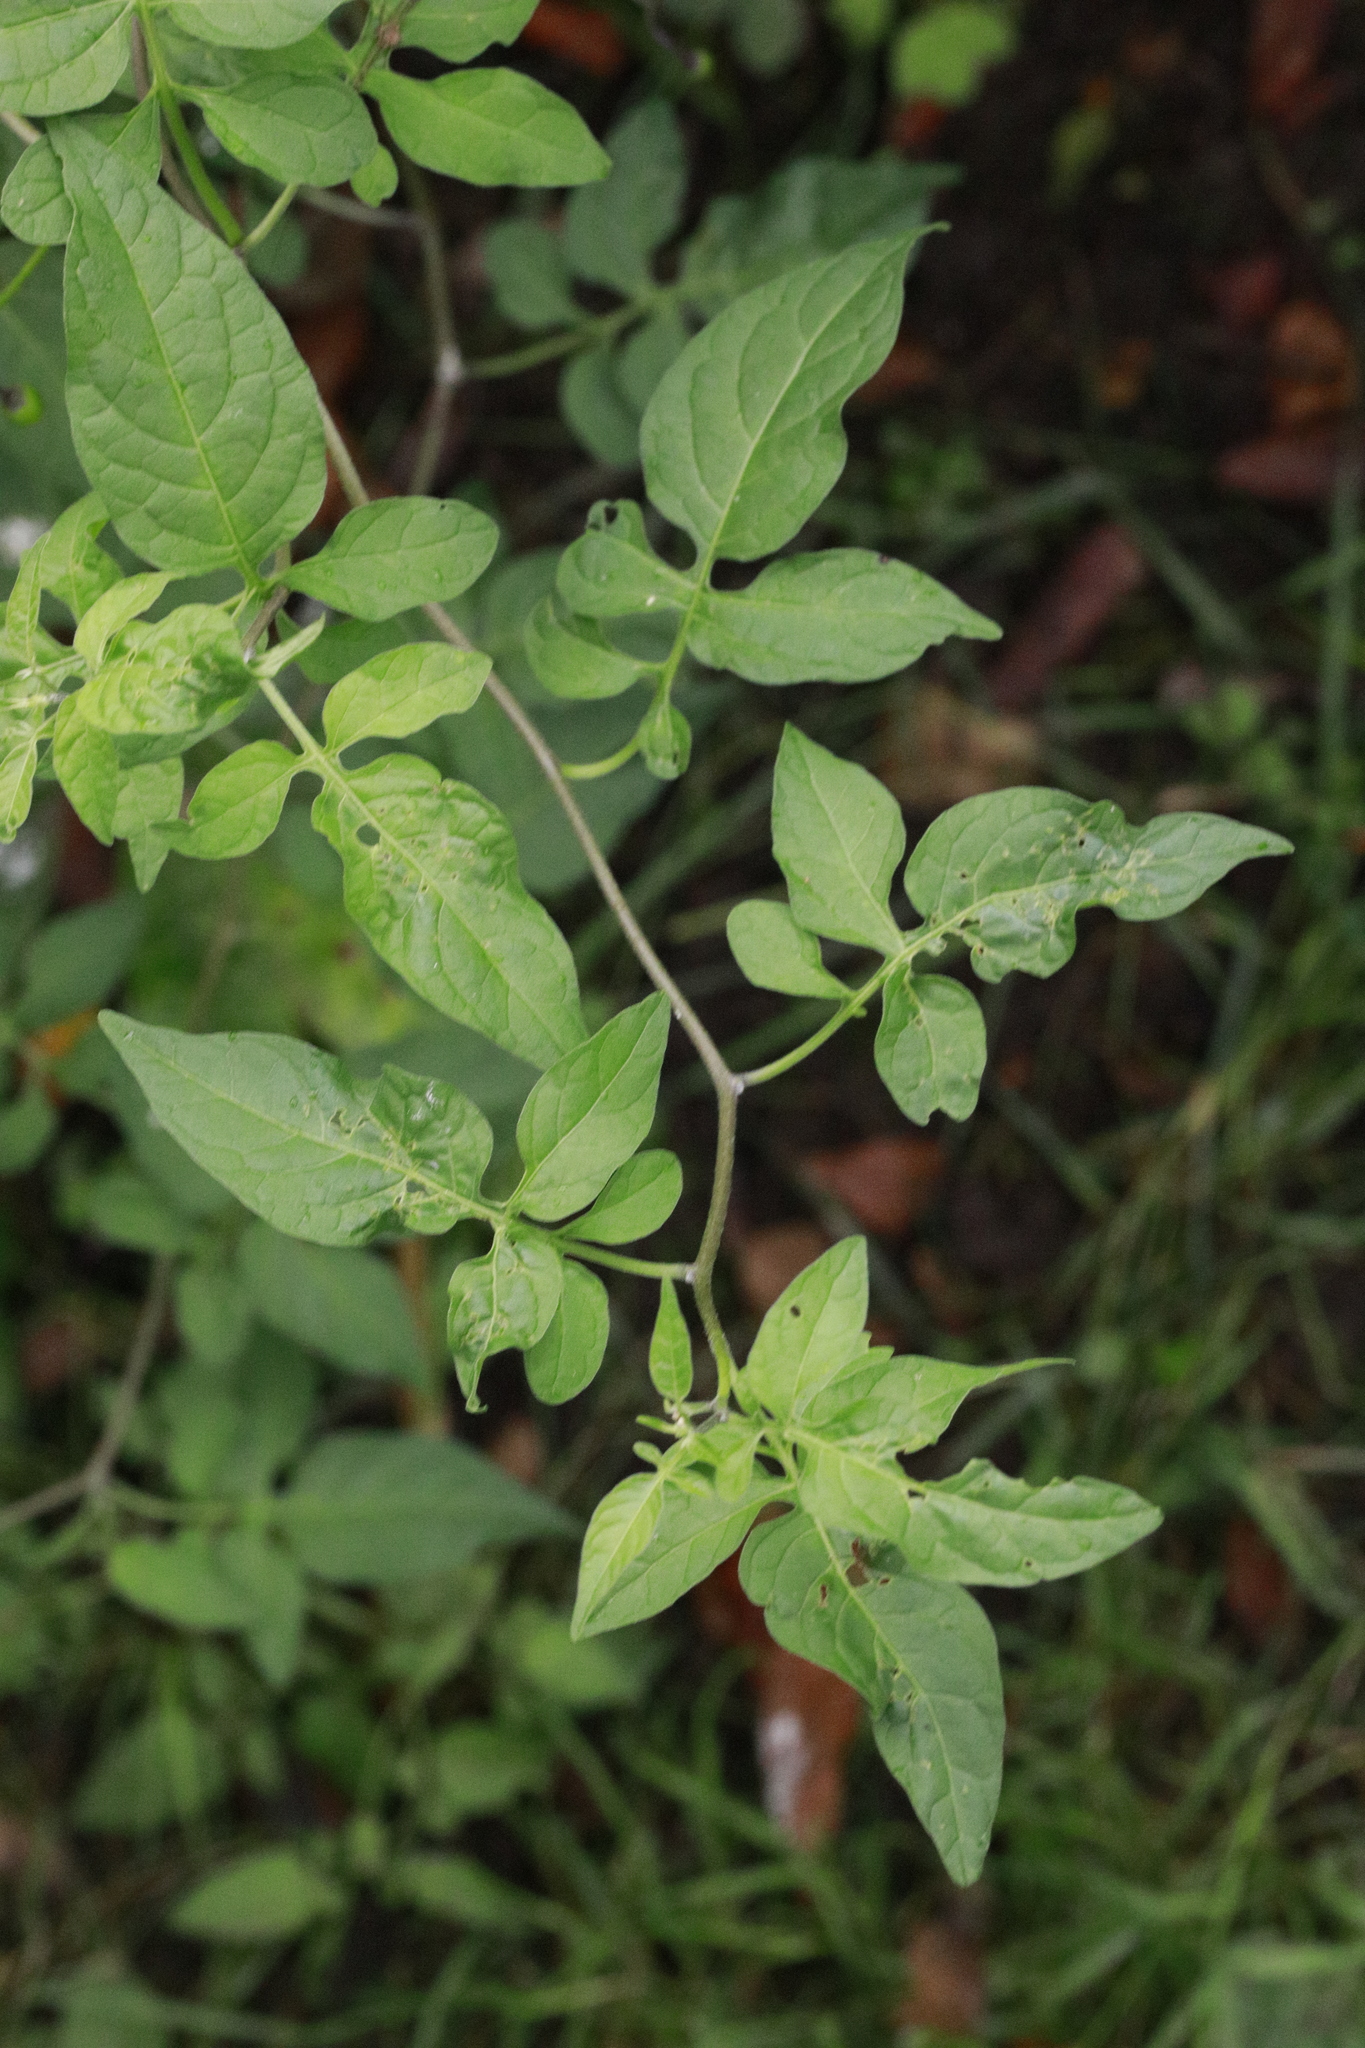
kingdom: Plantae
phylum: Tracheophyta
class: Magnoliopsida
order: Solanales
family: Solanaceae
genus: Solanum
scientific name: Solanum dulcamara
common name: Climbing nightshade
